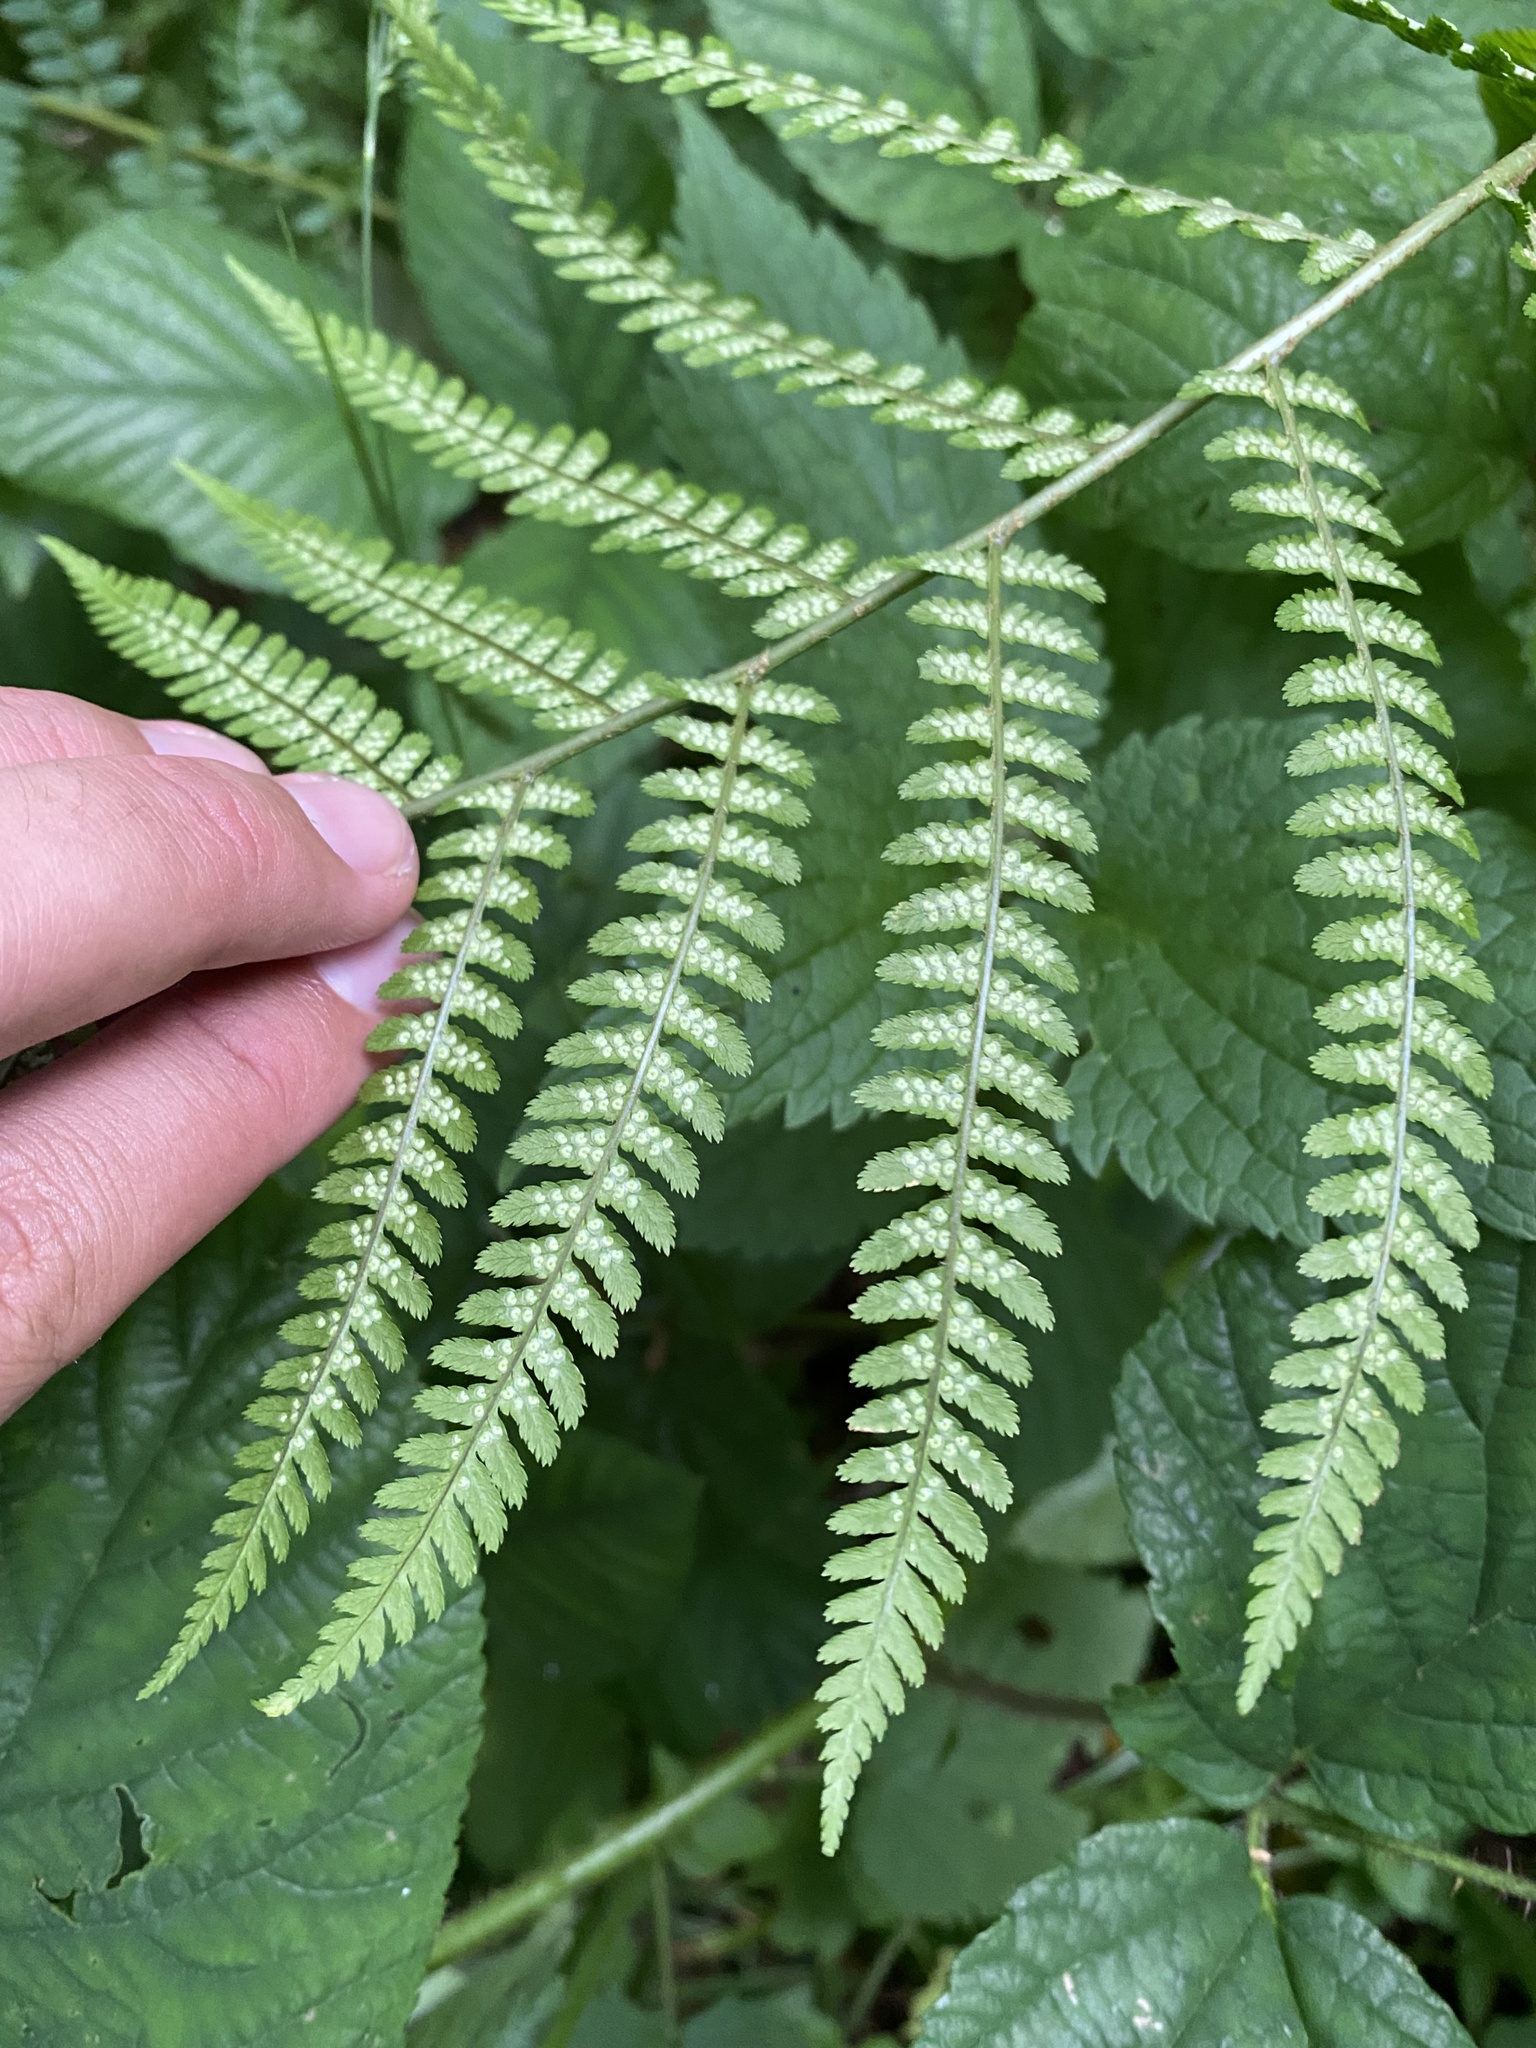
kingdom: Plantae
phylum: Tracheophyta
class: Polypodiopsida
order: Polypodiales
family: Athyriaceae
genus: Athyrium
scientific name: Athyrium filix-femina
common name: Lady fern
